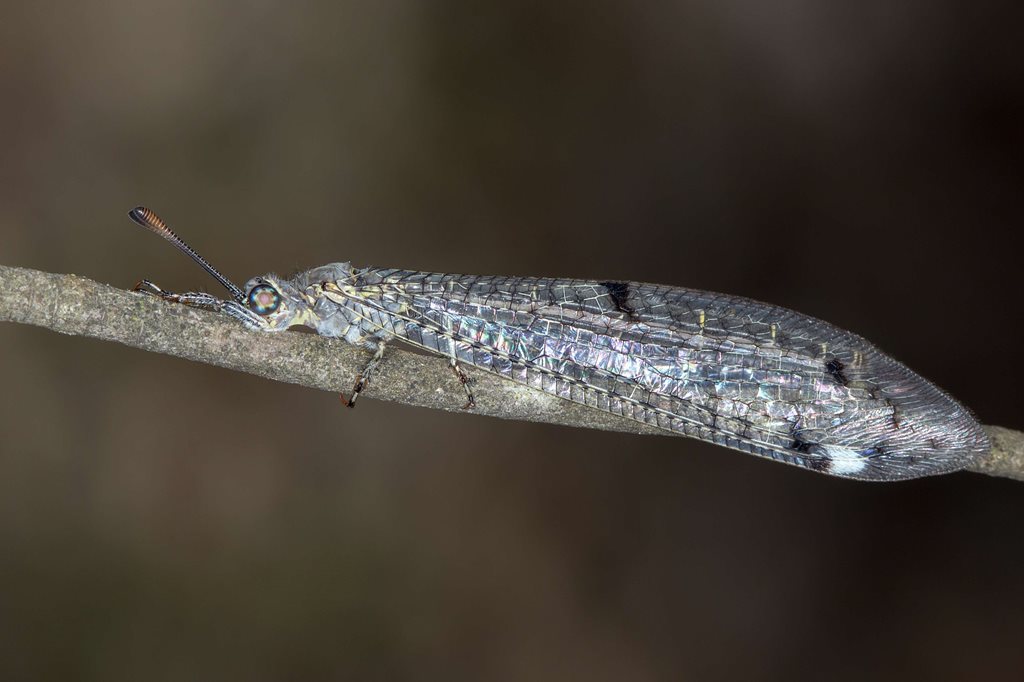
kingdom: Animalia
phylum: Arthropoda
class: Insecta
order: Neuroptera
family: Myrmeleontidae
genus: Bandidus
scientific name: Bandidus canifrons
